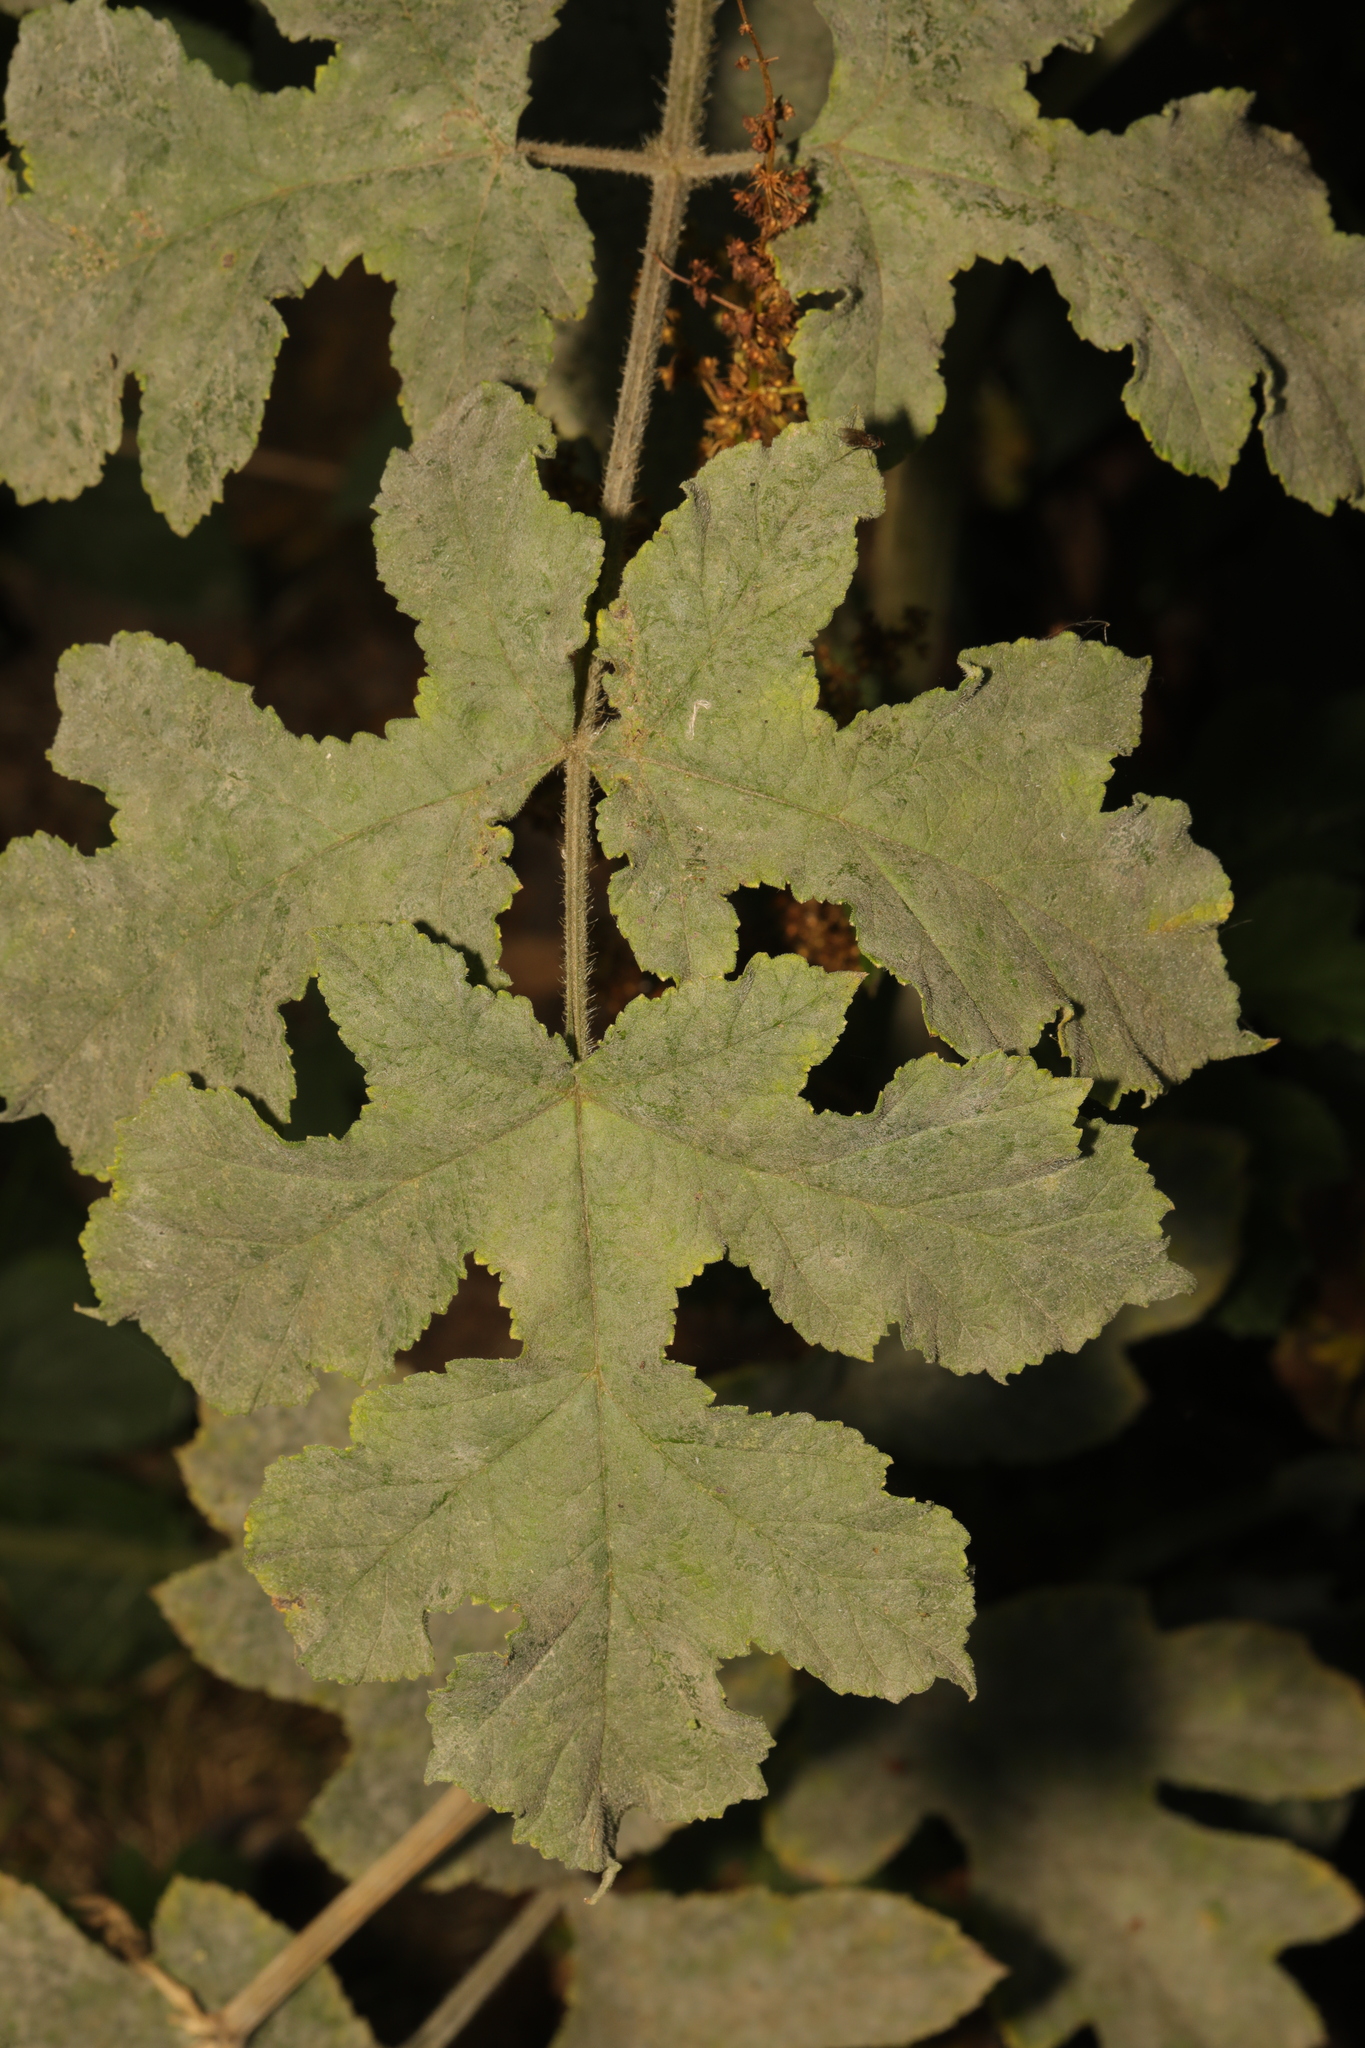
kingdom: Plantae
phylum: Tracheophyta
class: Magnoliopsida
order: Apiales
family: Apiaceae
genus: Heracleum
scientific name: Heracleum sphondylium
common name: Hogweed
